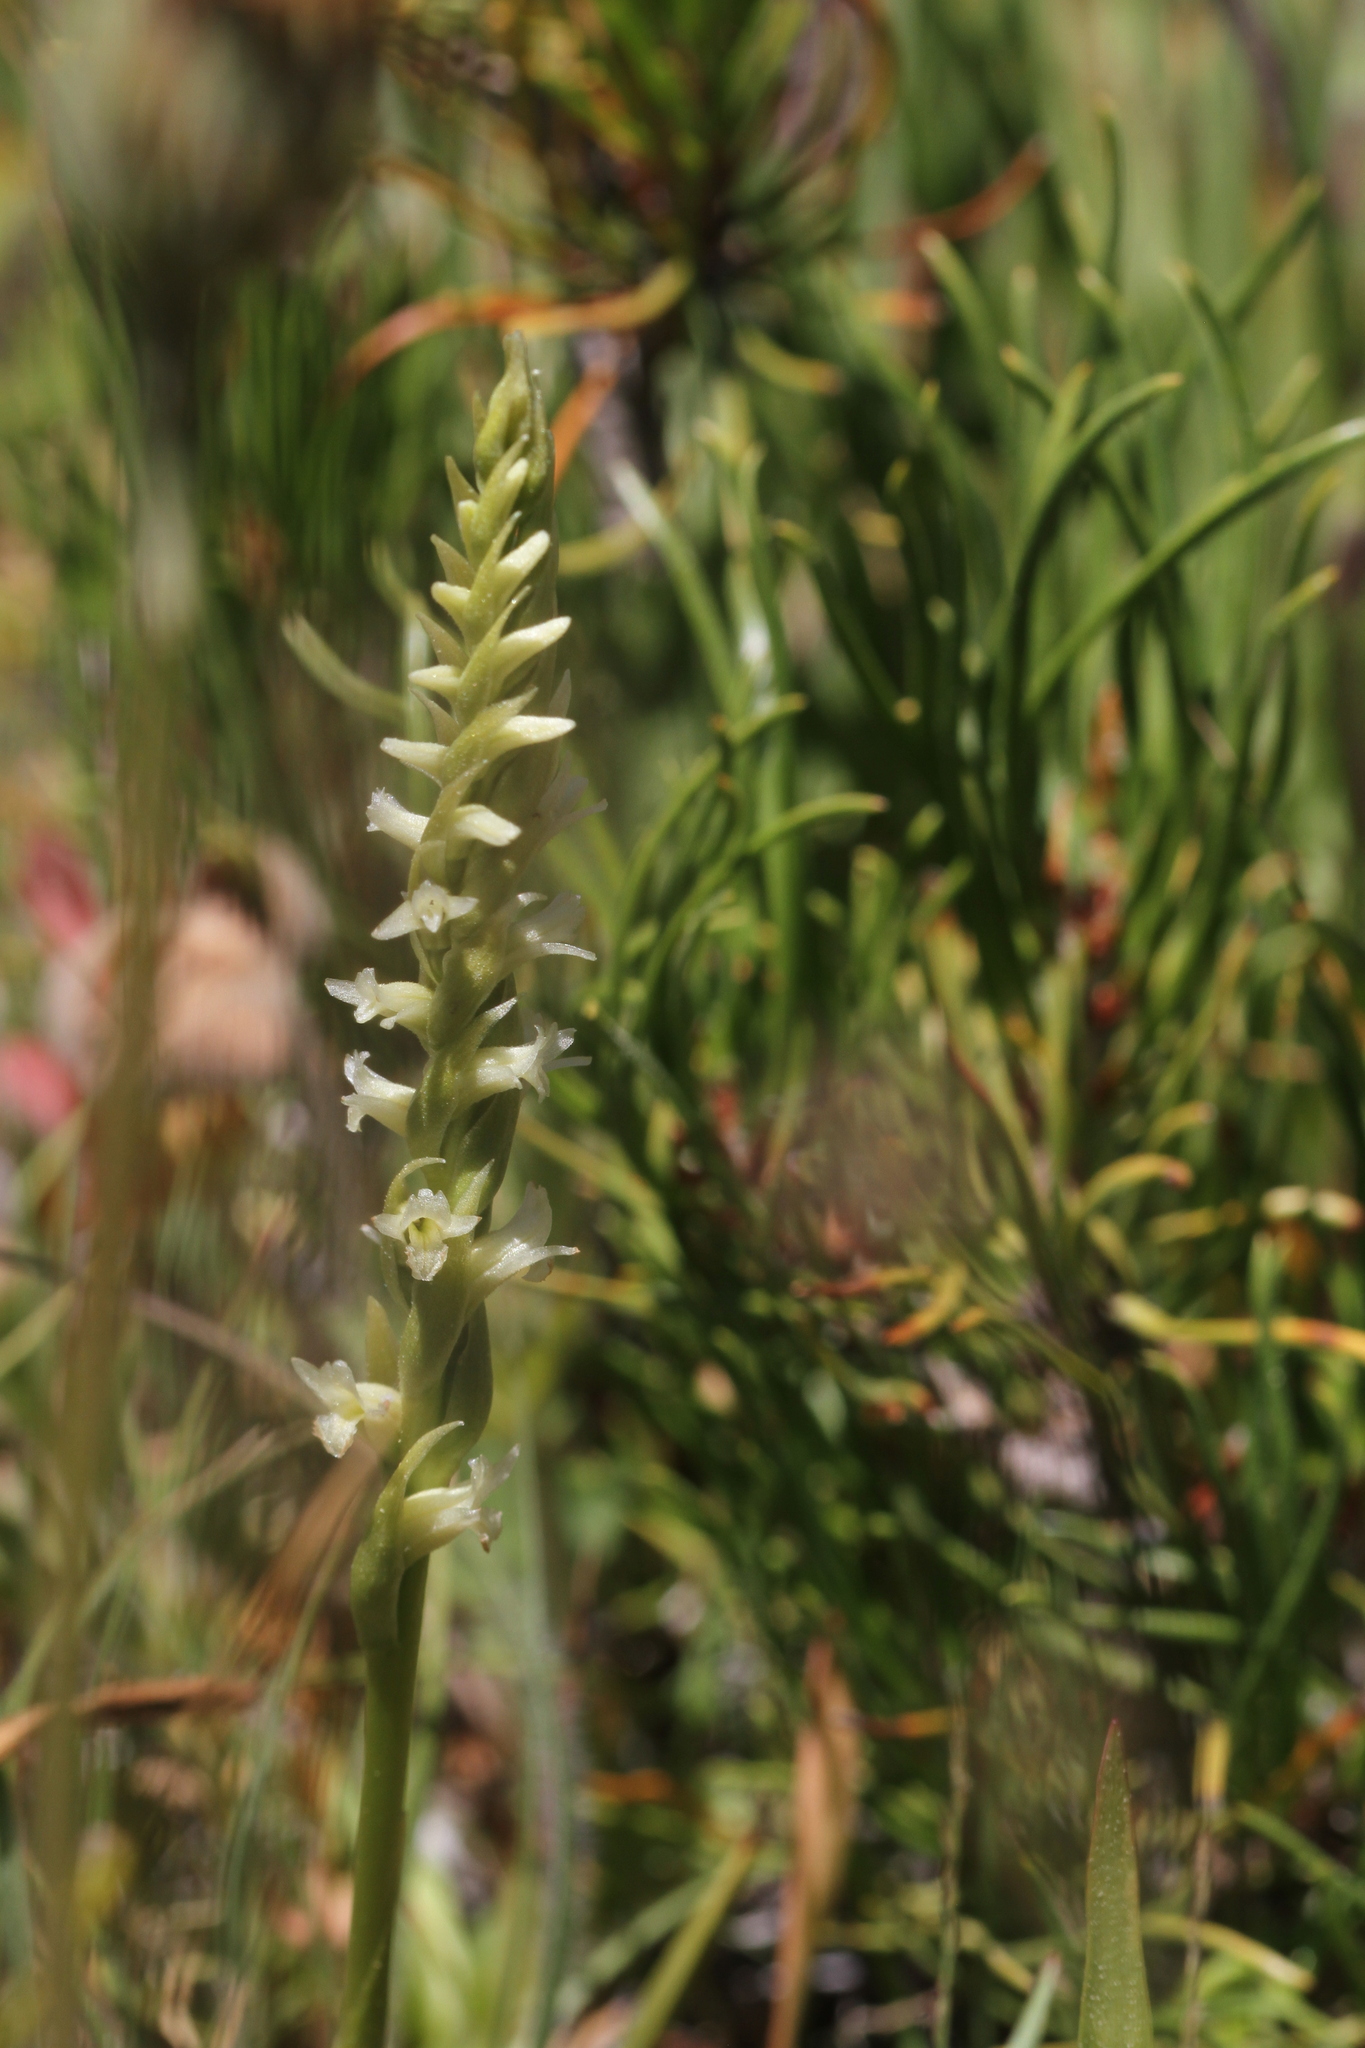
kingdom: Plantae
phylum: Tracheophyta
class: Liliopsida
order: Asparagales
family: Orchidaceae
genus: Spiranthes
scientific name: Spiranthes stellata
